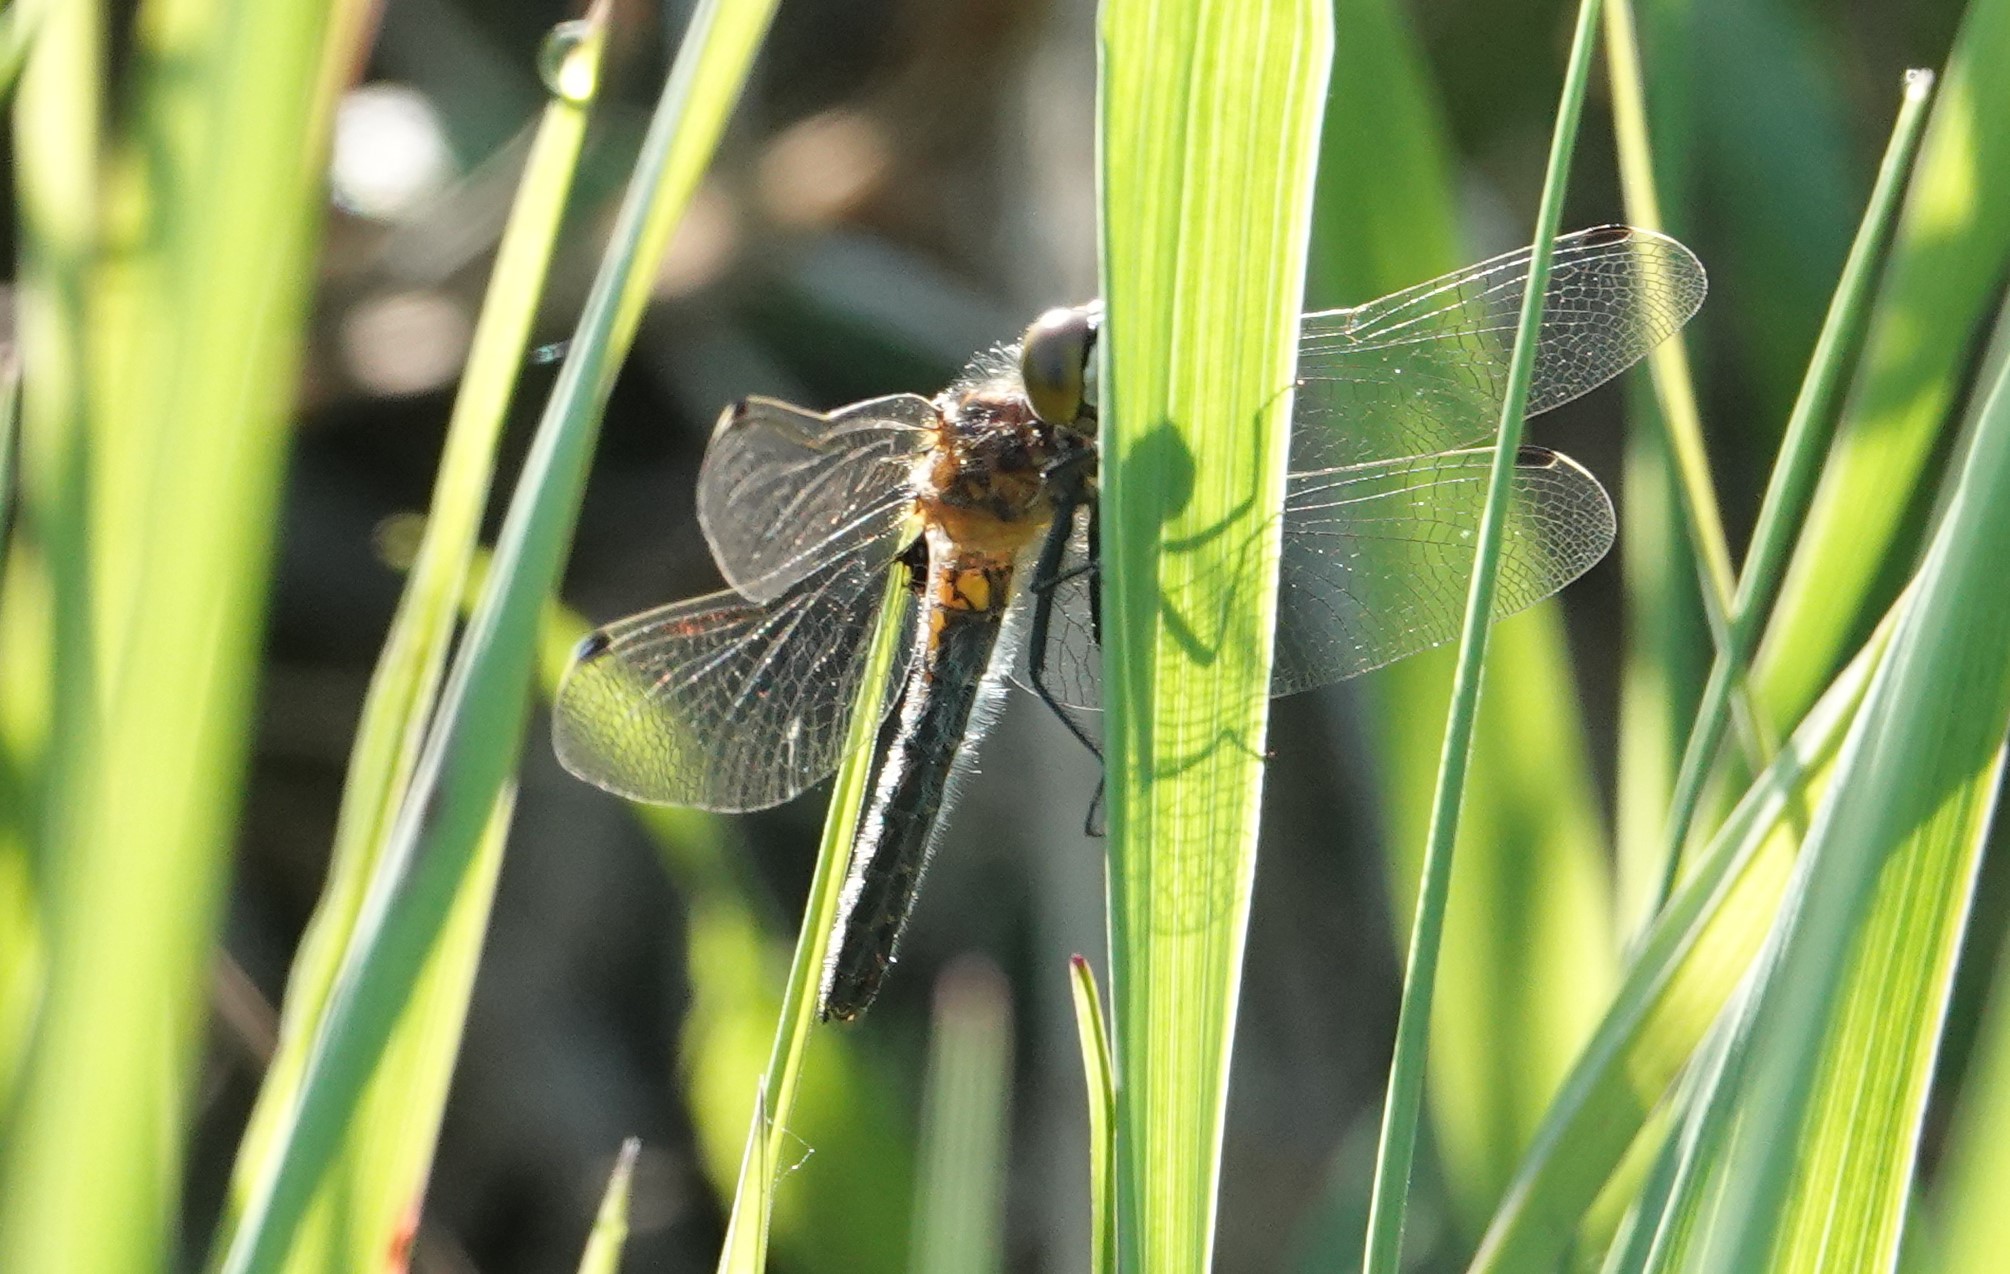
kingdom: Animalia
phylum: Arthropoda
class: Insecta
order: Odonata
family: Libellulidae
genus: Leucorrhinia
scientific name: Leucorrhinia intacta
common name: Dot-tailed whiteface
